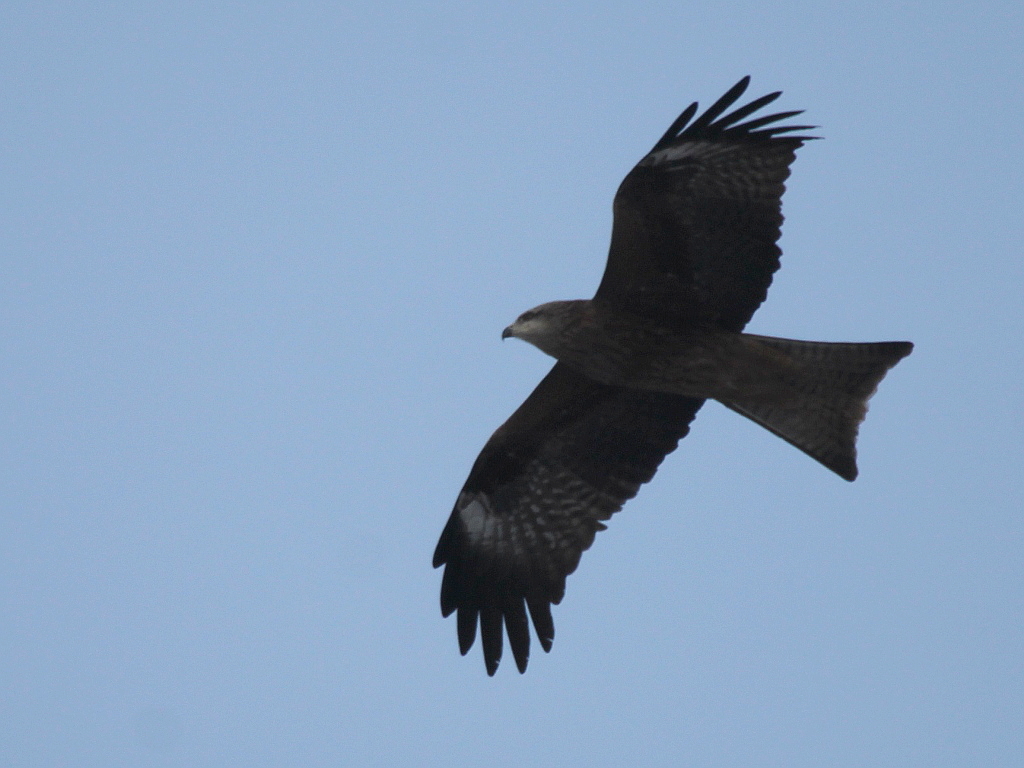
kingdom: Animalia
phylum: Chordata
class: Aves
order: Accipitriformes
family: Accipitridae
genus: Milvus
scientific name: Milvus migrans
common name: Black kite
